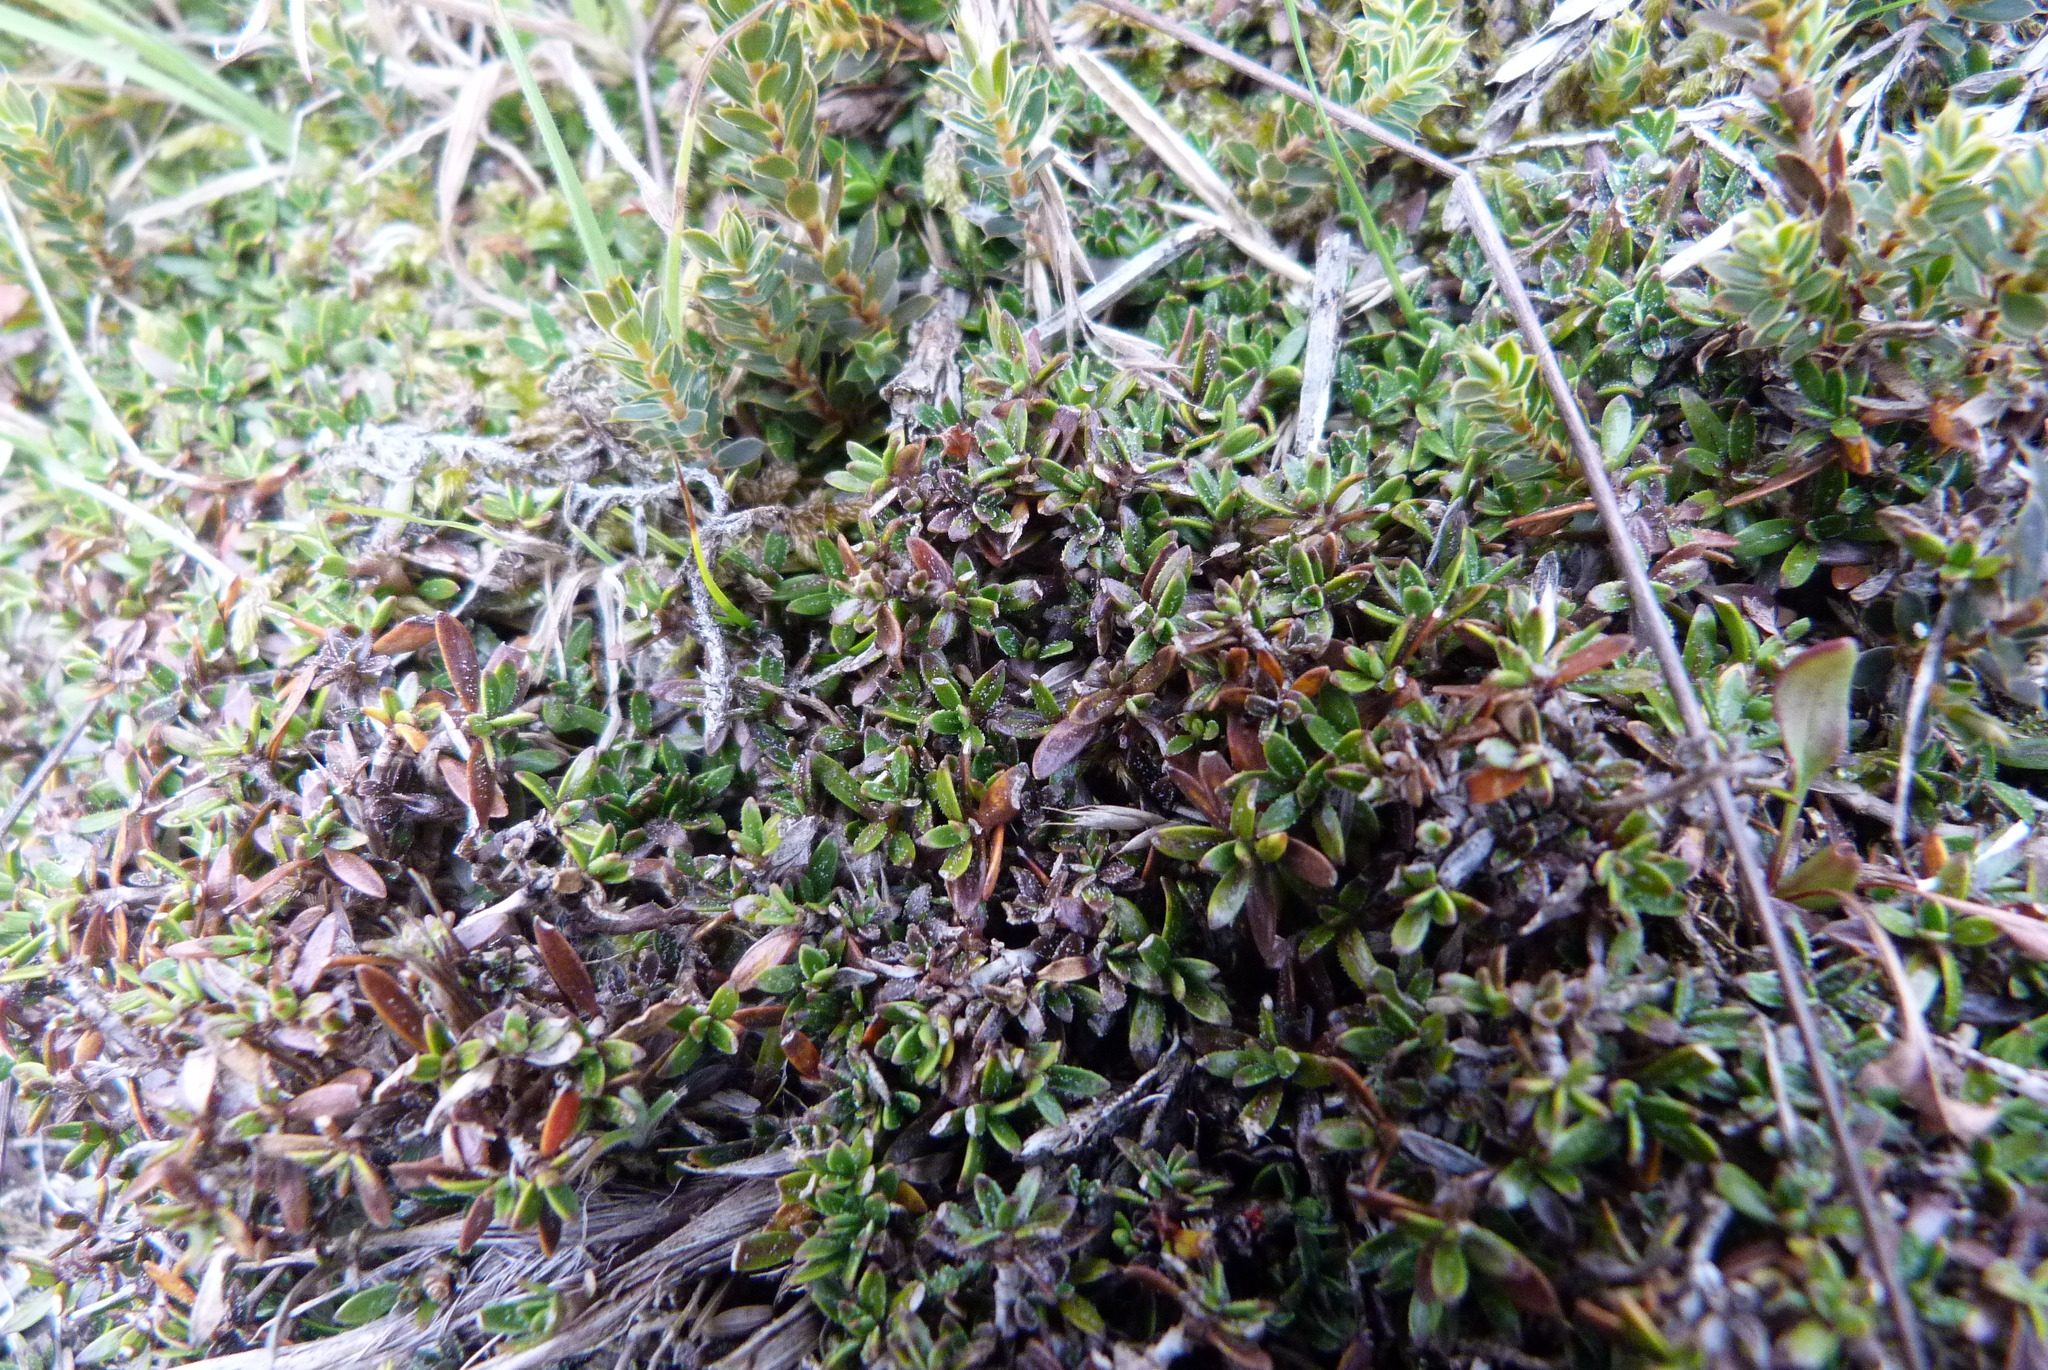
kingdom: Plantae
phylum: Tracheophyta
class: Magnoliopsida
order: Gentianales
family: Rubiaceae
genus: Coprosma
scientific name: Coprosma atropurpurea
